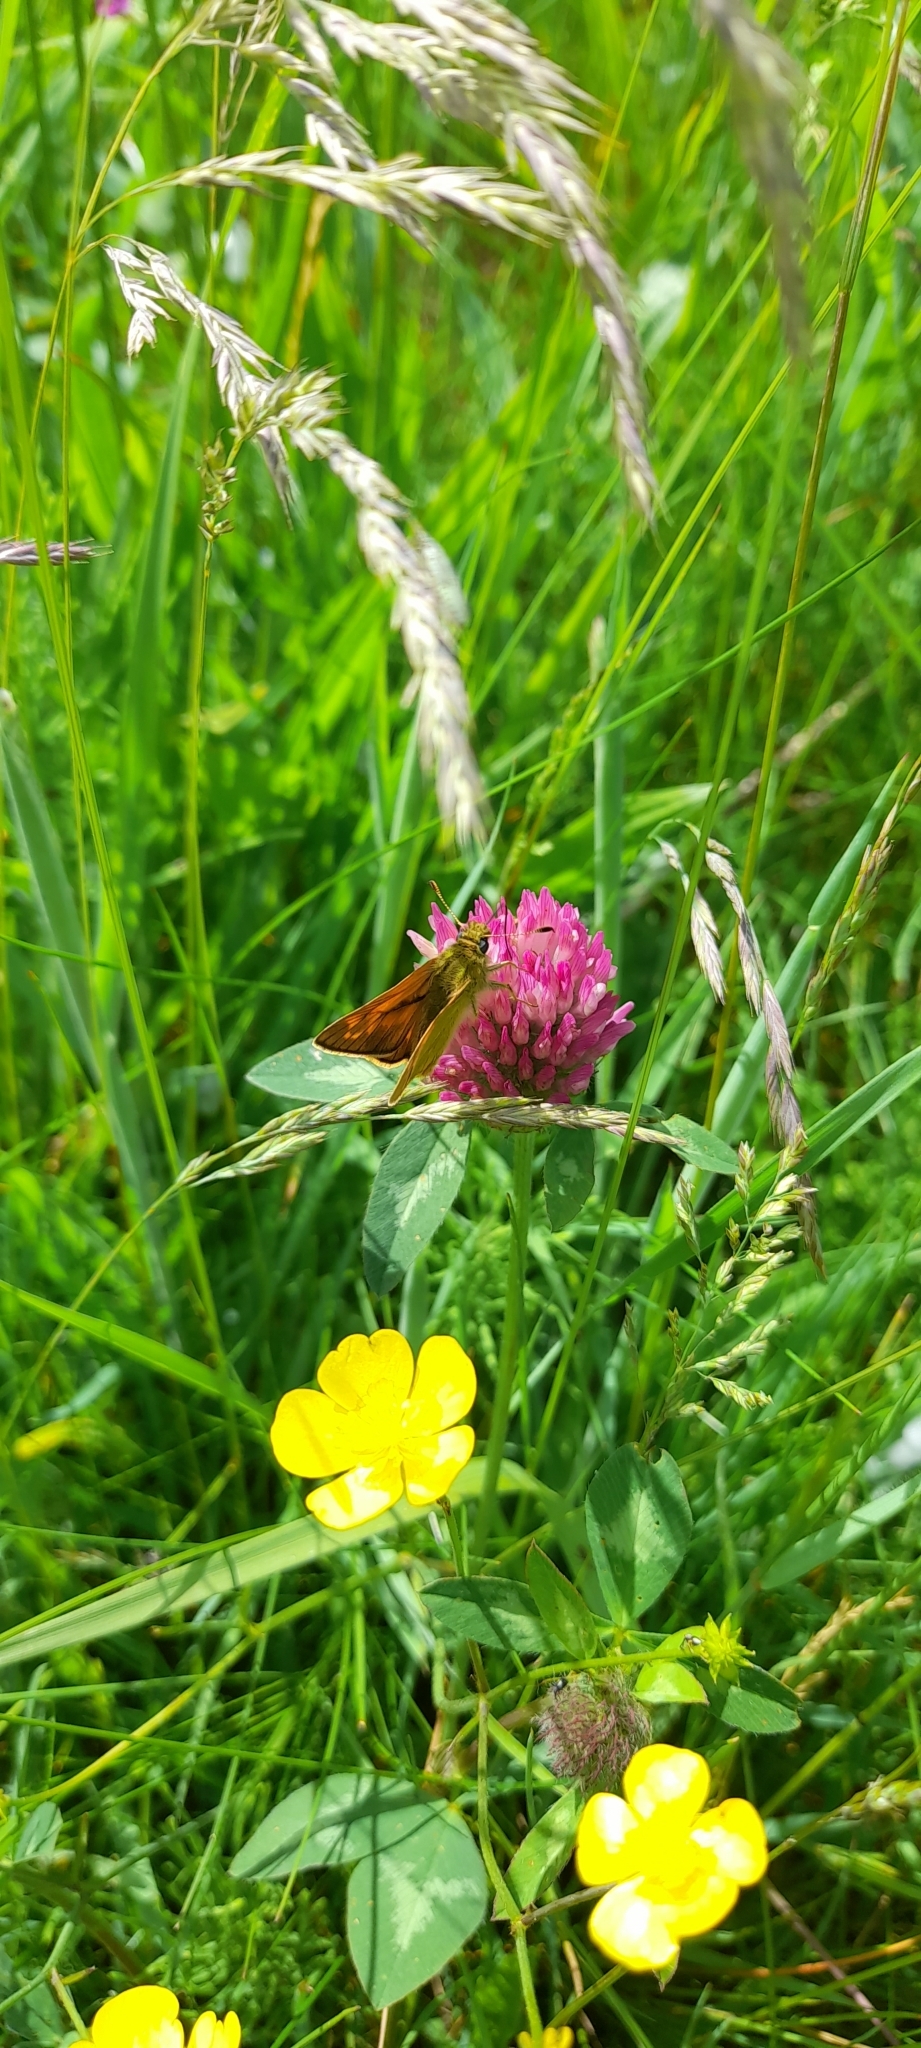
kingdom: Animalia
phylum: Arthropoda
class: Insecta
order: Lepidoptera
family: Hesperiidae
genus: Ochlodes
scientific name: Ochlodes venata
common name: Large skipper
